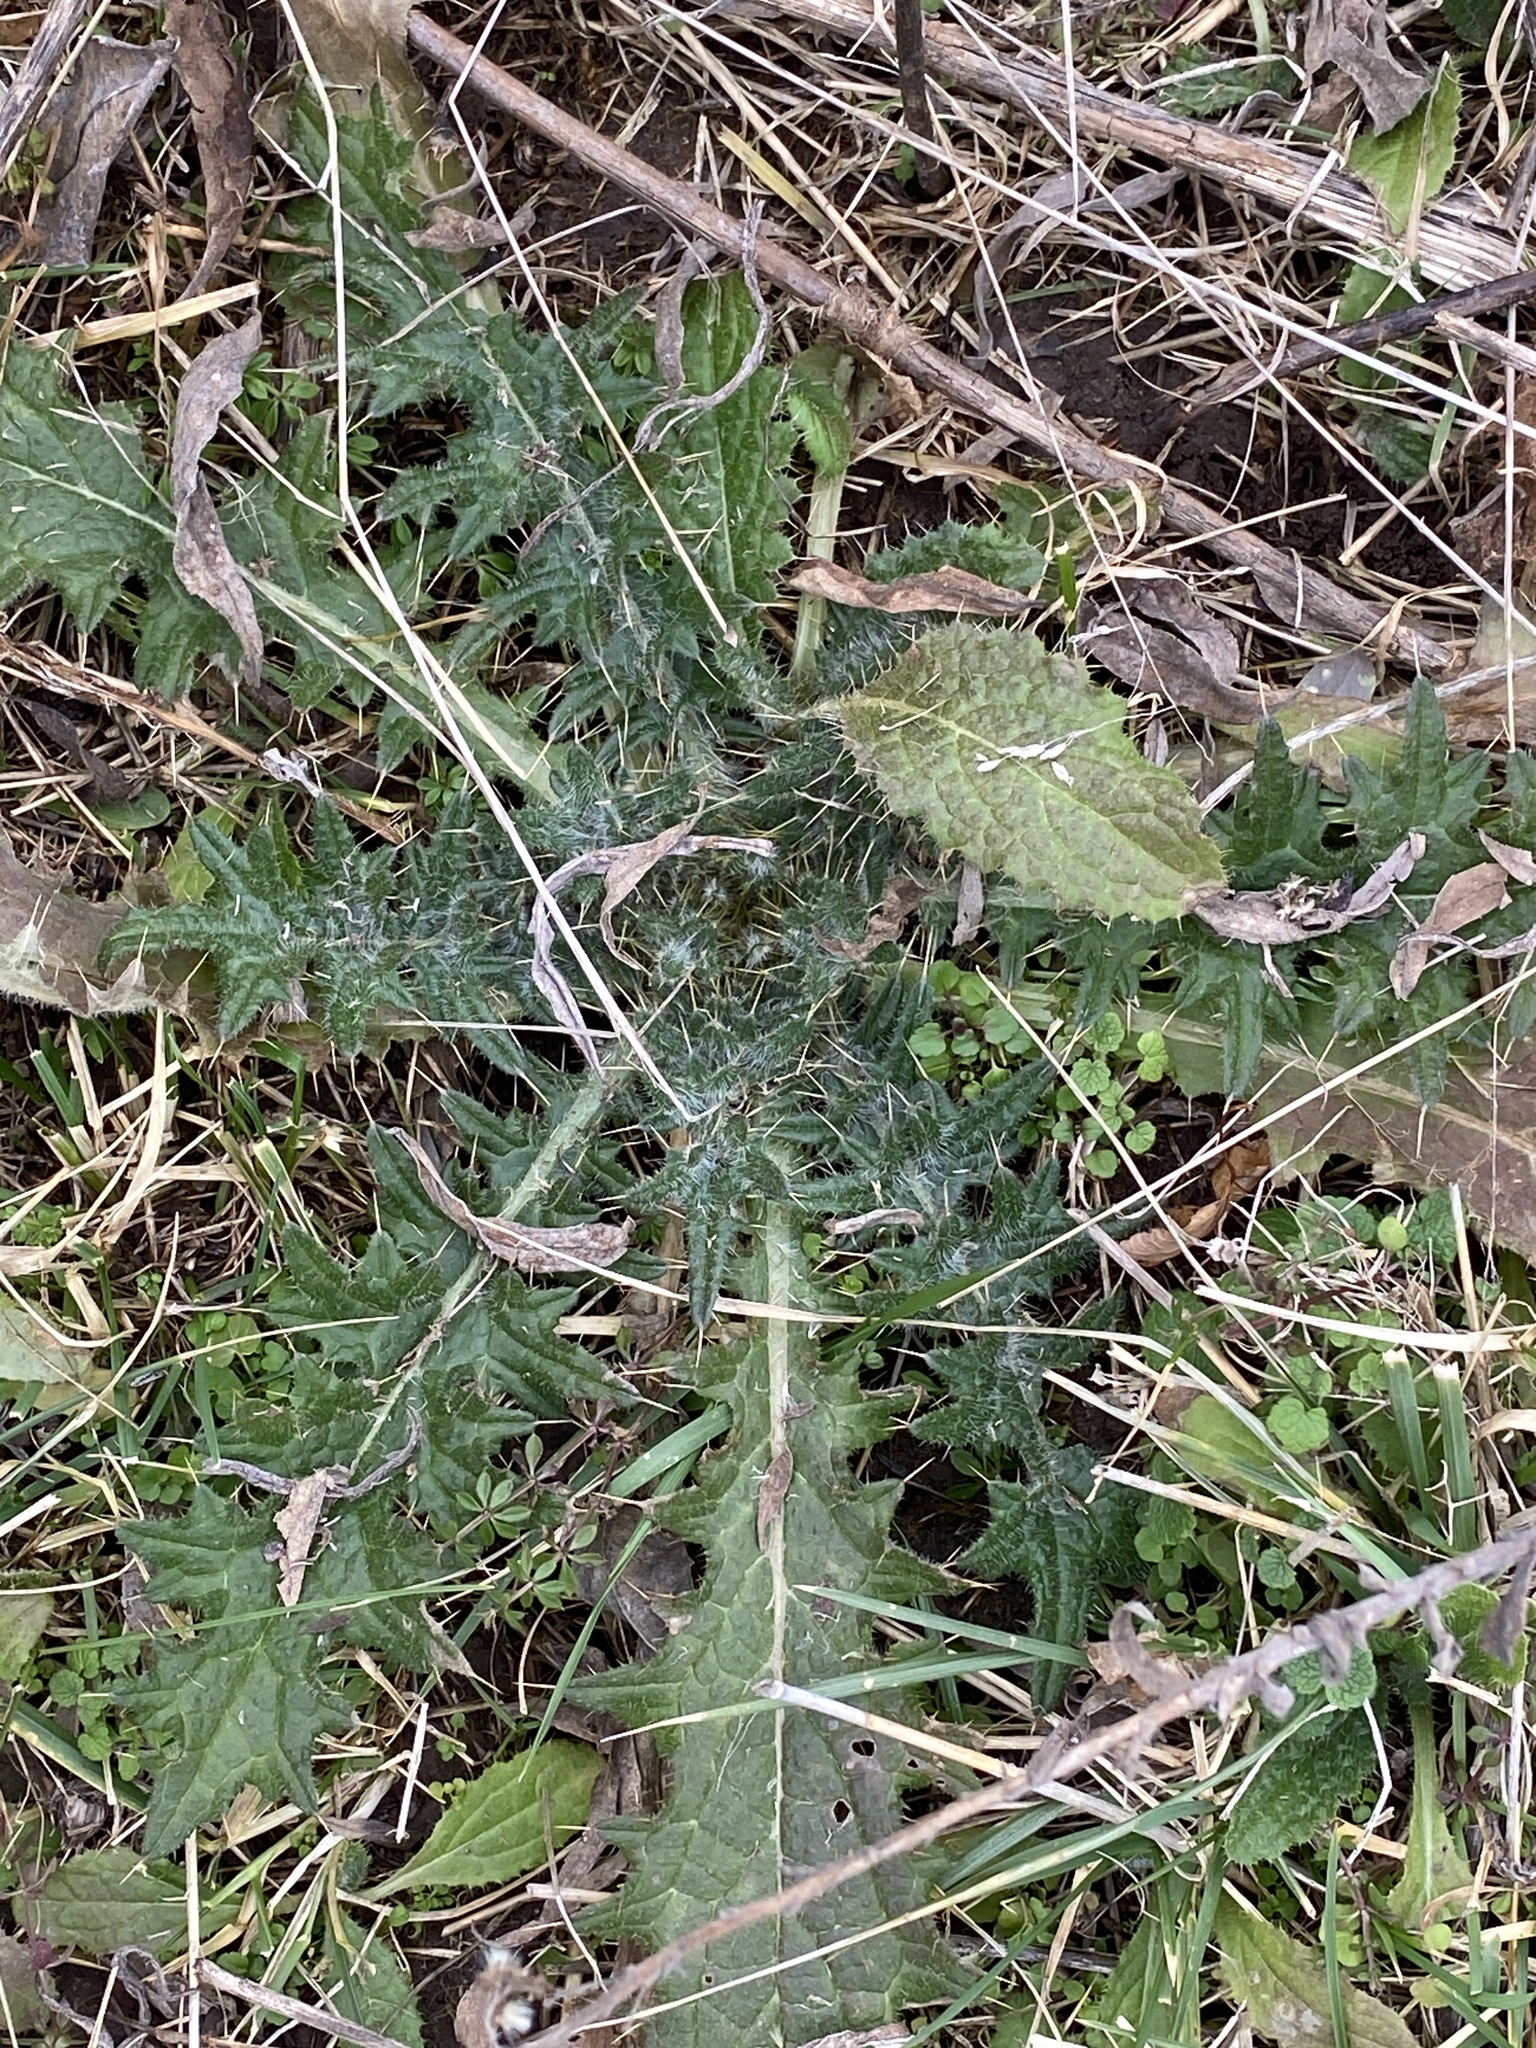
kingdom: Plantae
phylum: Tracheophyta
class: Magnoliopsida
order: Asterales
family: Asteraceae
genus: Cirsium
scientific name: Cirsium vulgare
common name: Bull thistle
